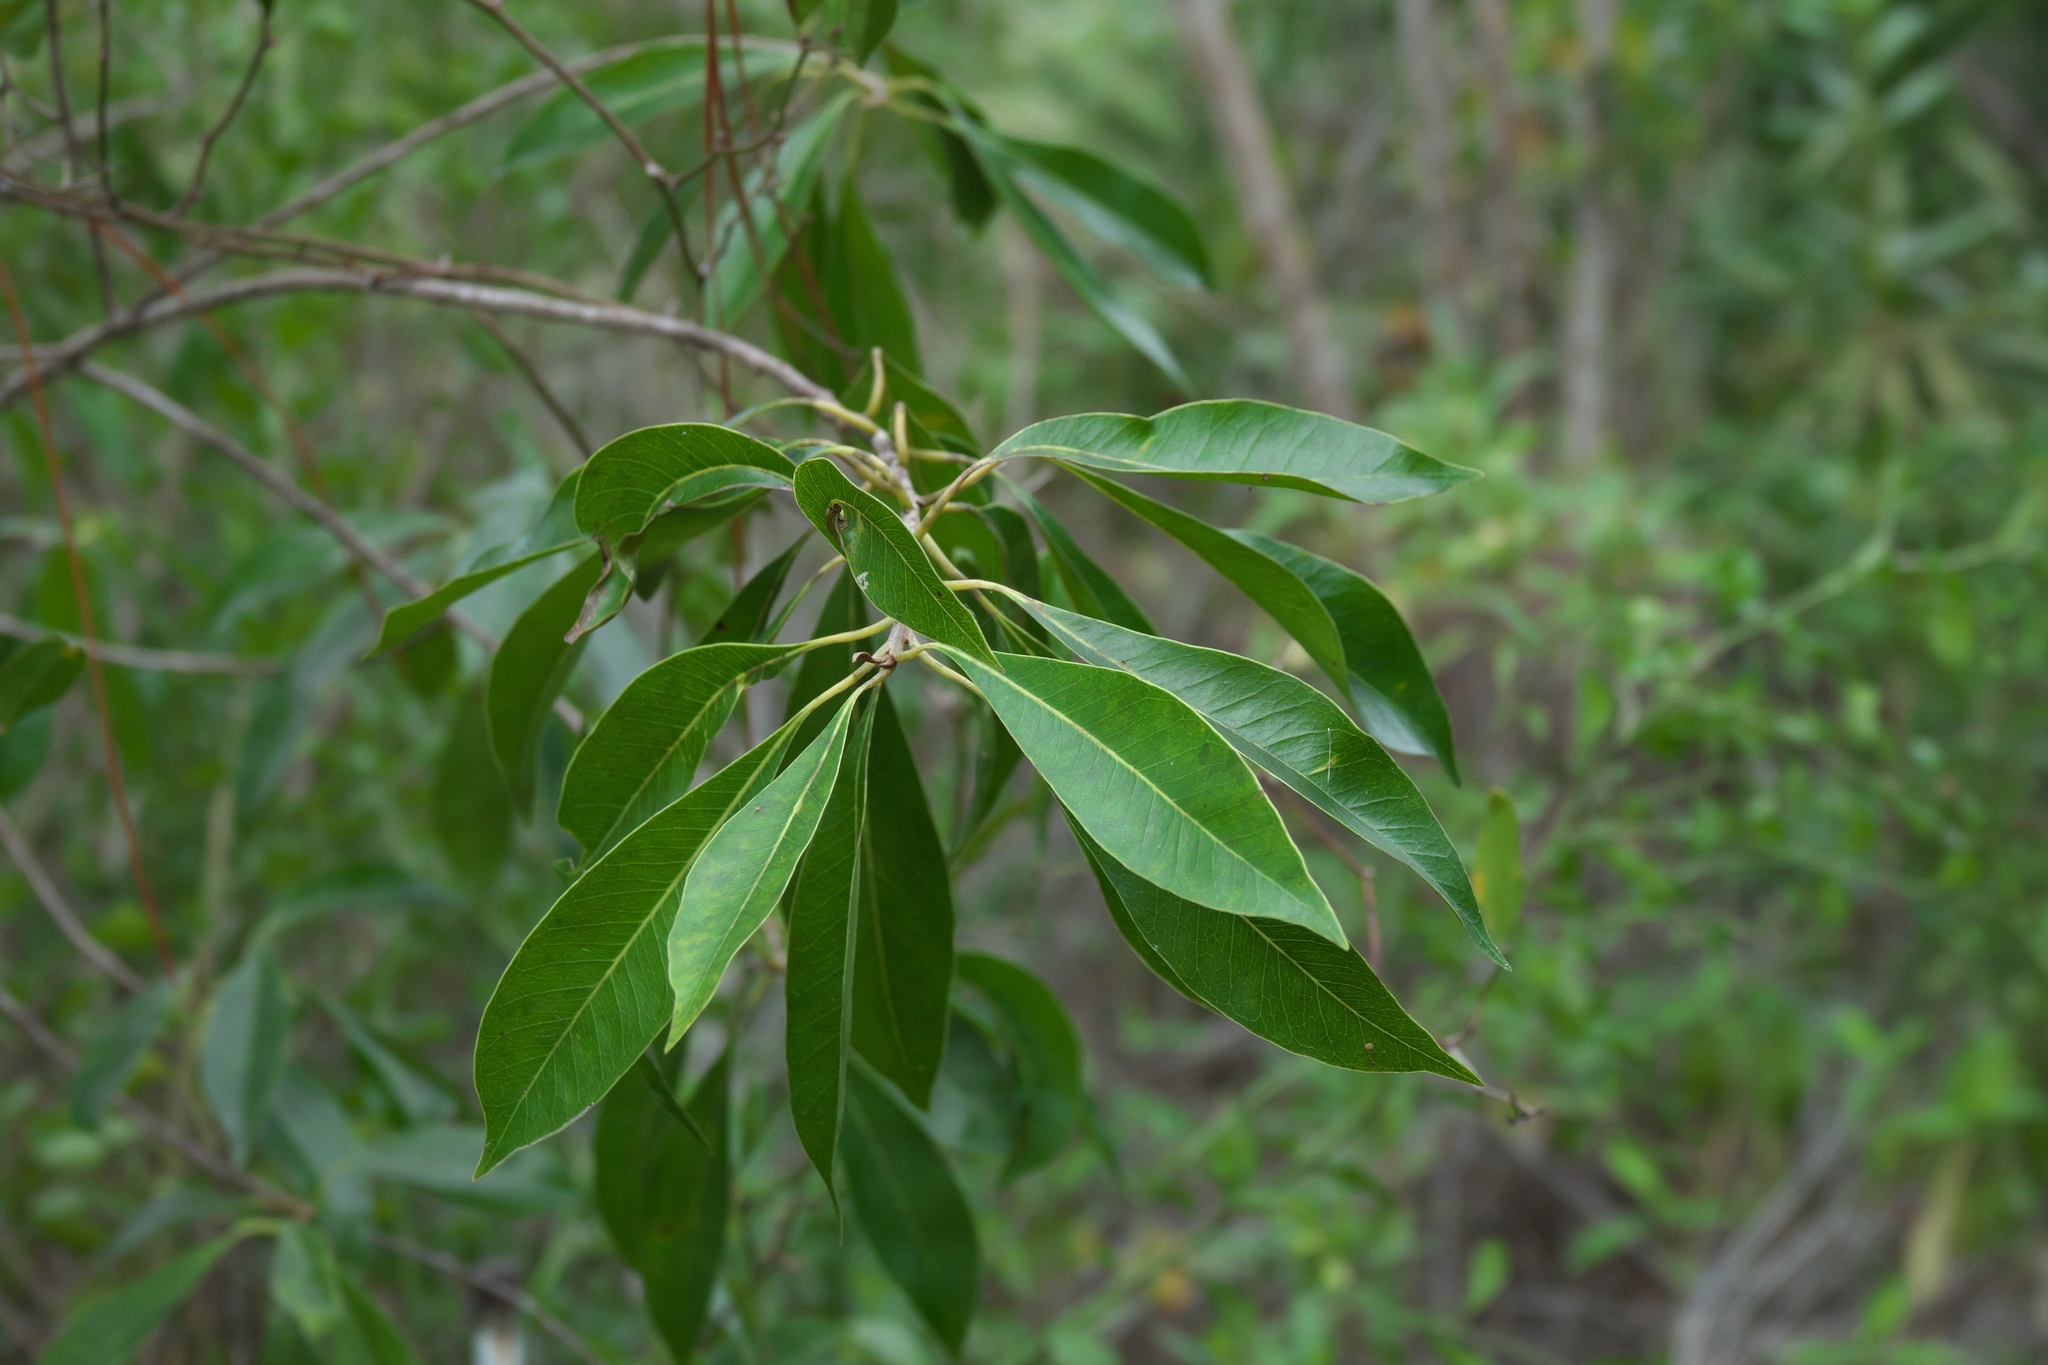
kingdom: Plantae
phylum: Tracheophyta
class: Magnoliopsida
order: Ericales
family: Sapotaceae
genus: Sideroxylon
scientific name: Sideroxylon salicifolium
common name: White bully
